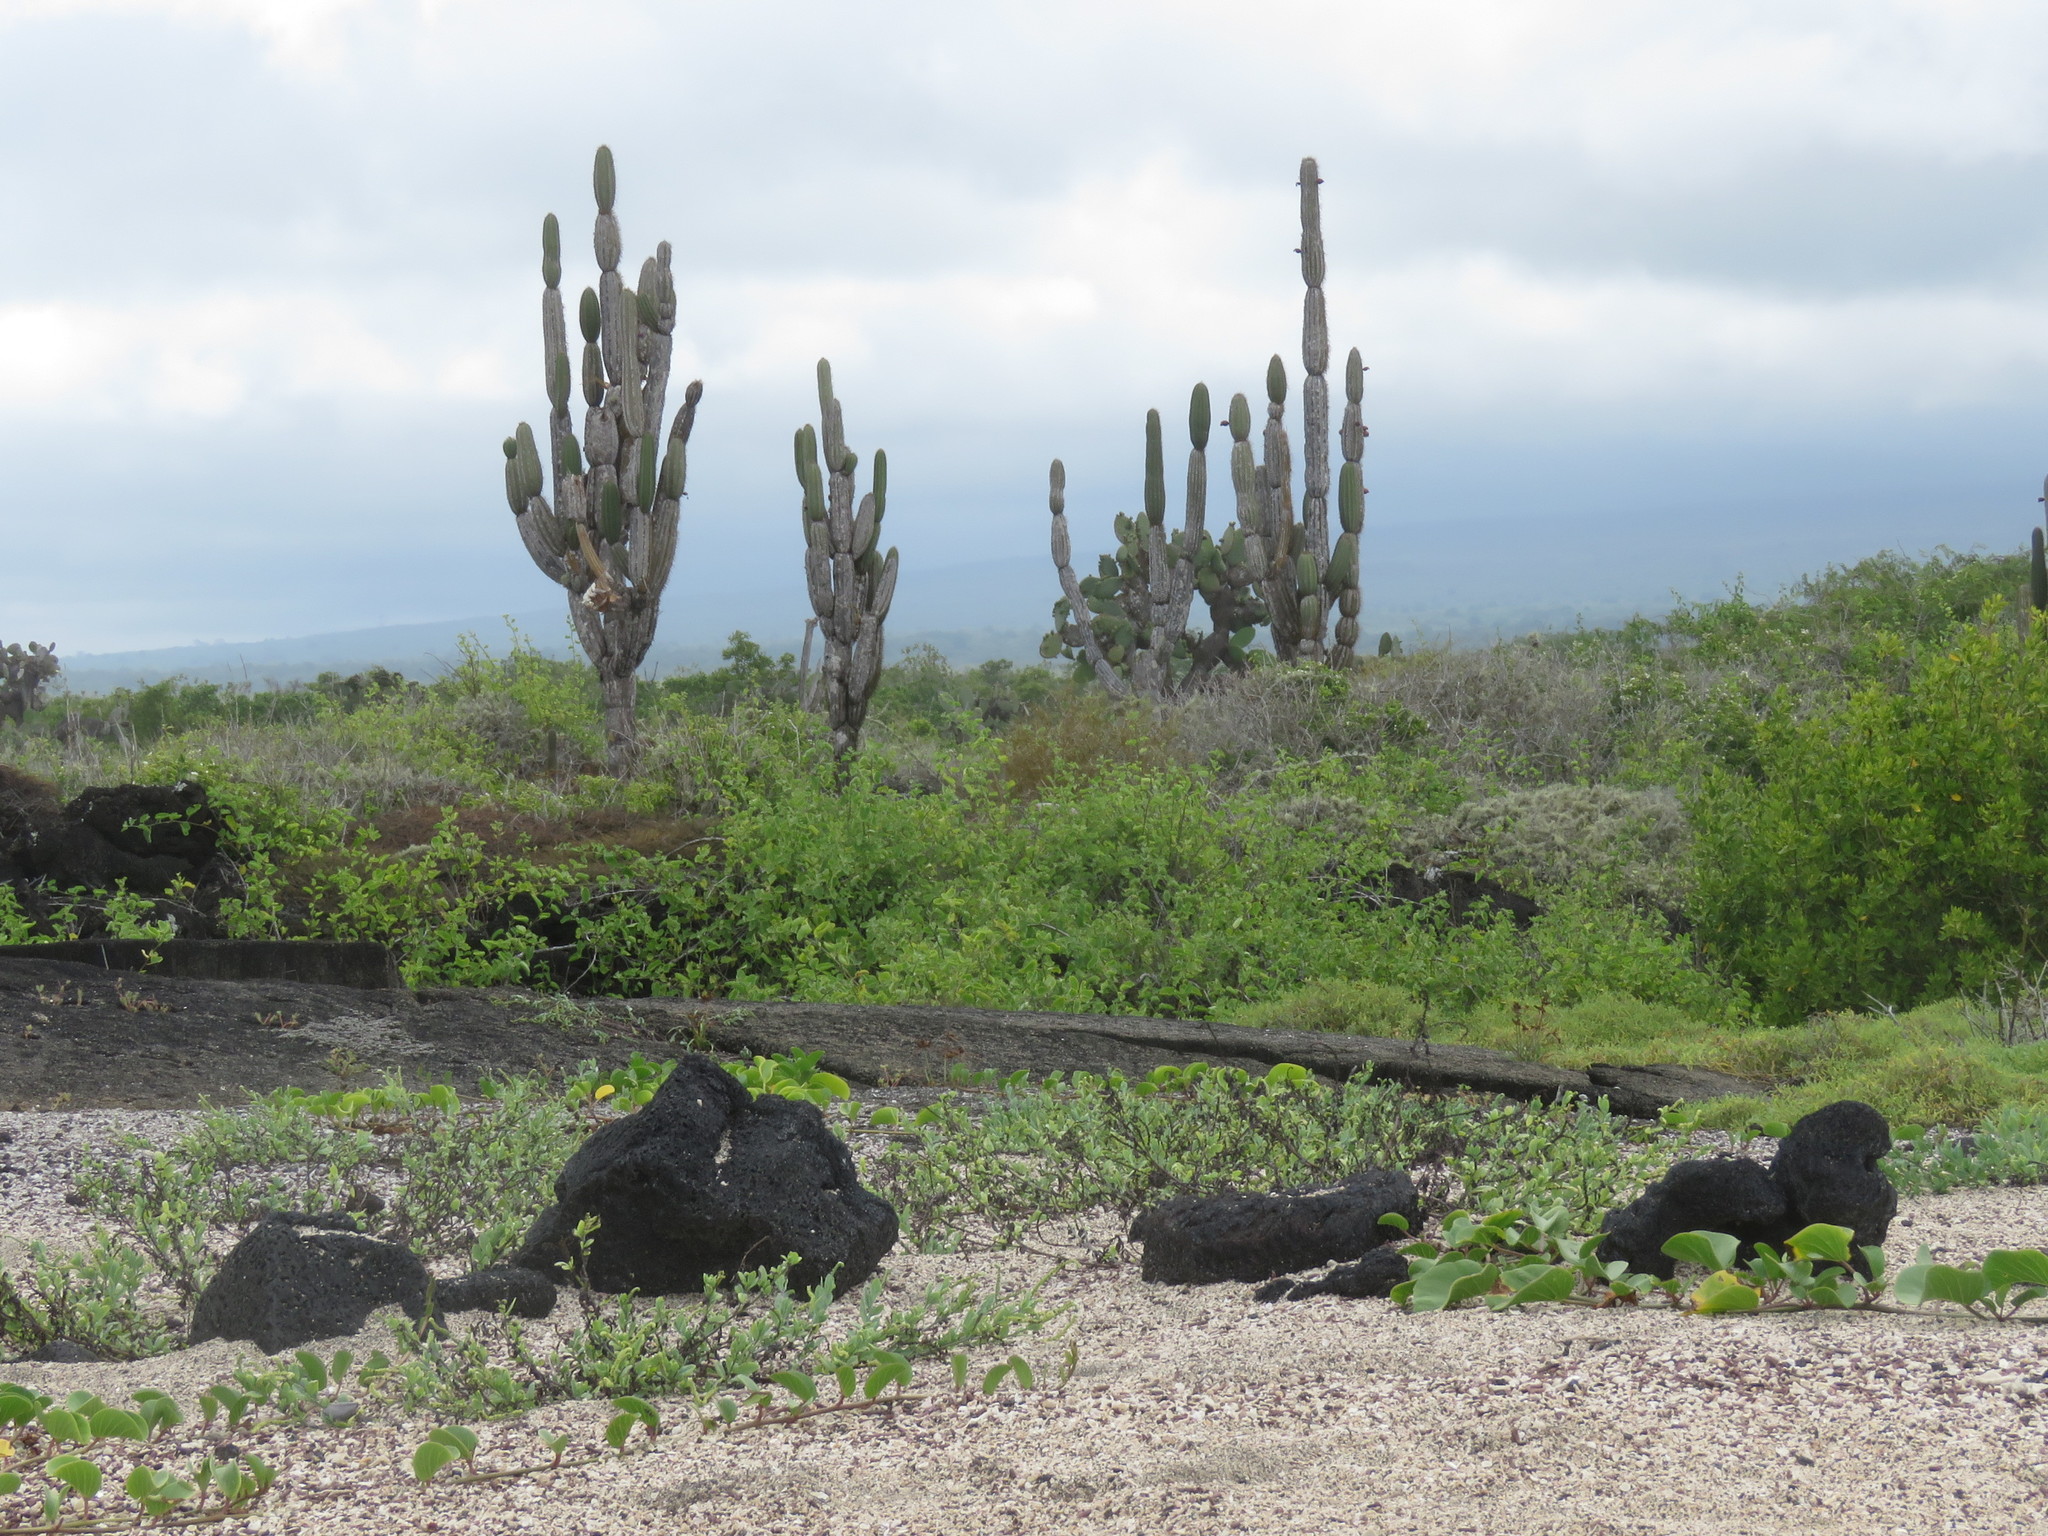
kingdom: Plantae
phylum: Tracheophyta
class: Magnoliopsida
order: Caryophyllales
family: Cactaceae
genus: Jasminocereus
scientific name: Jasminocereus thouarsii
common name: Candelabra cactus
